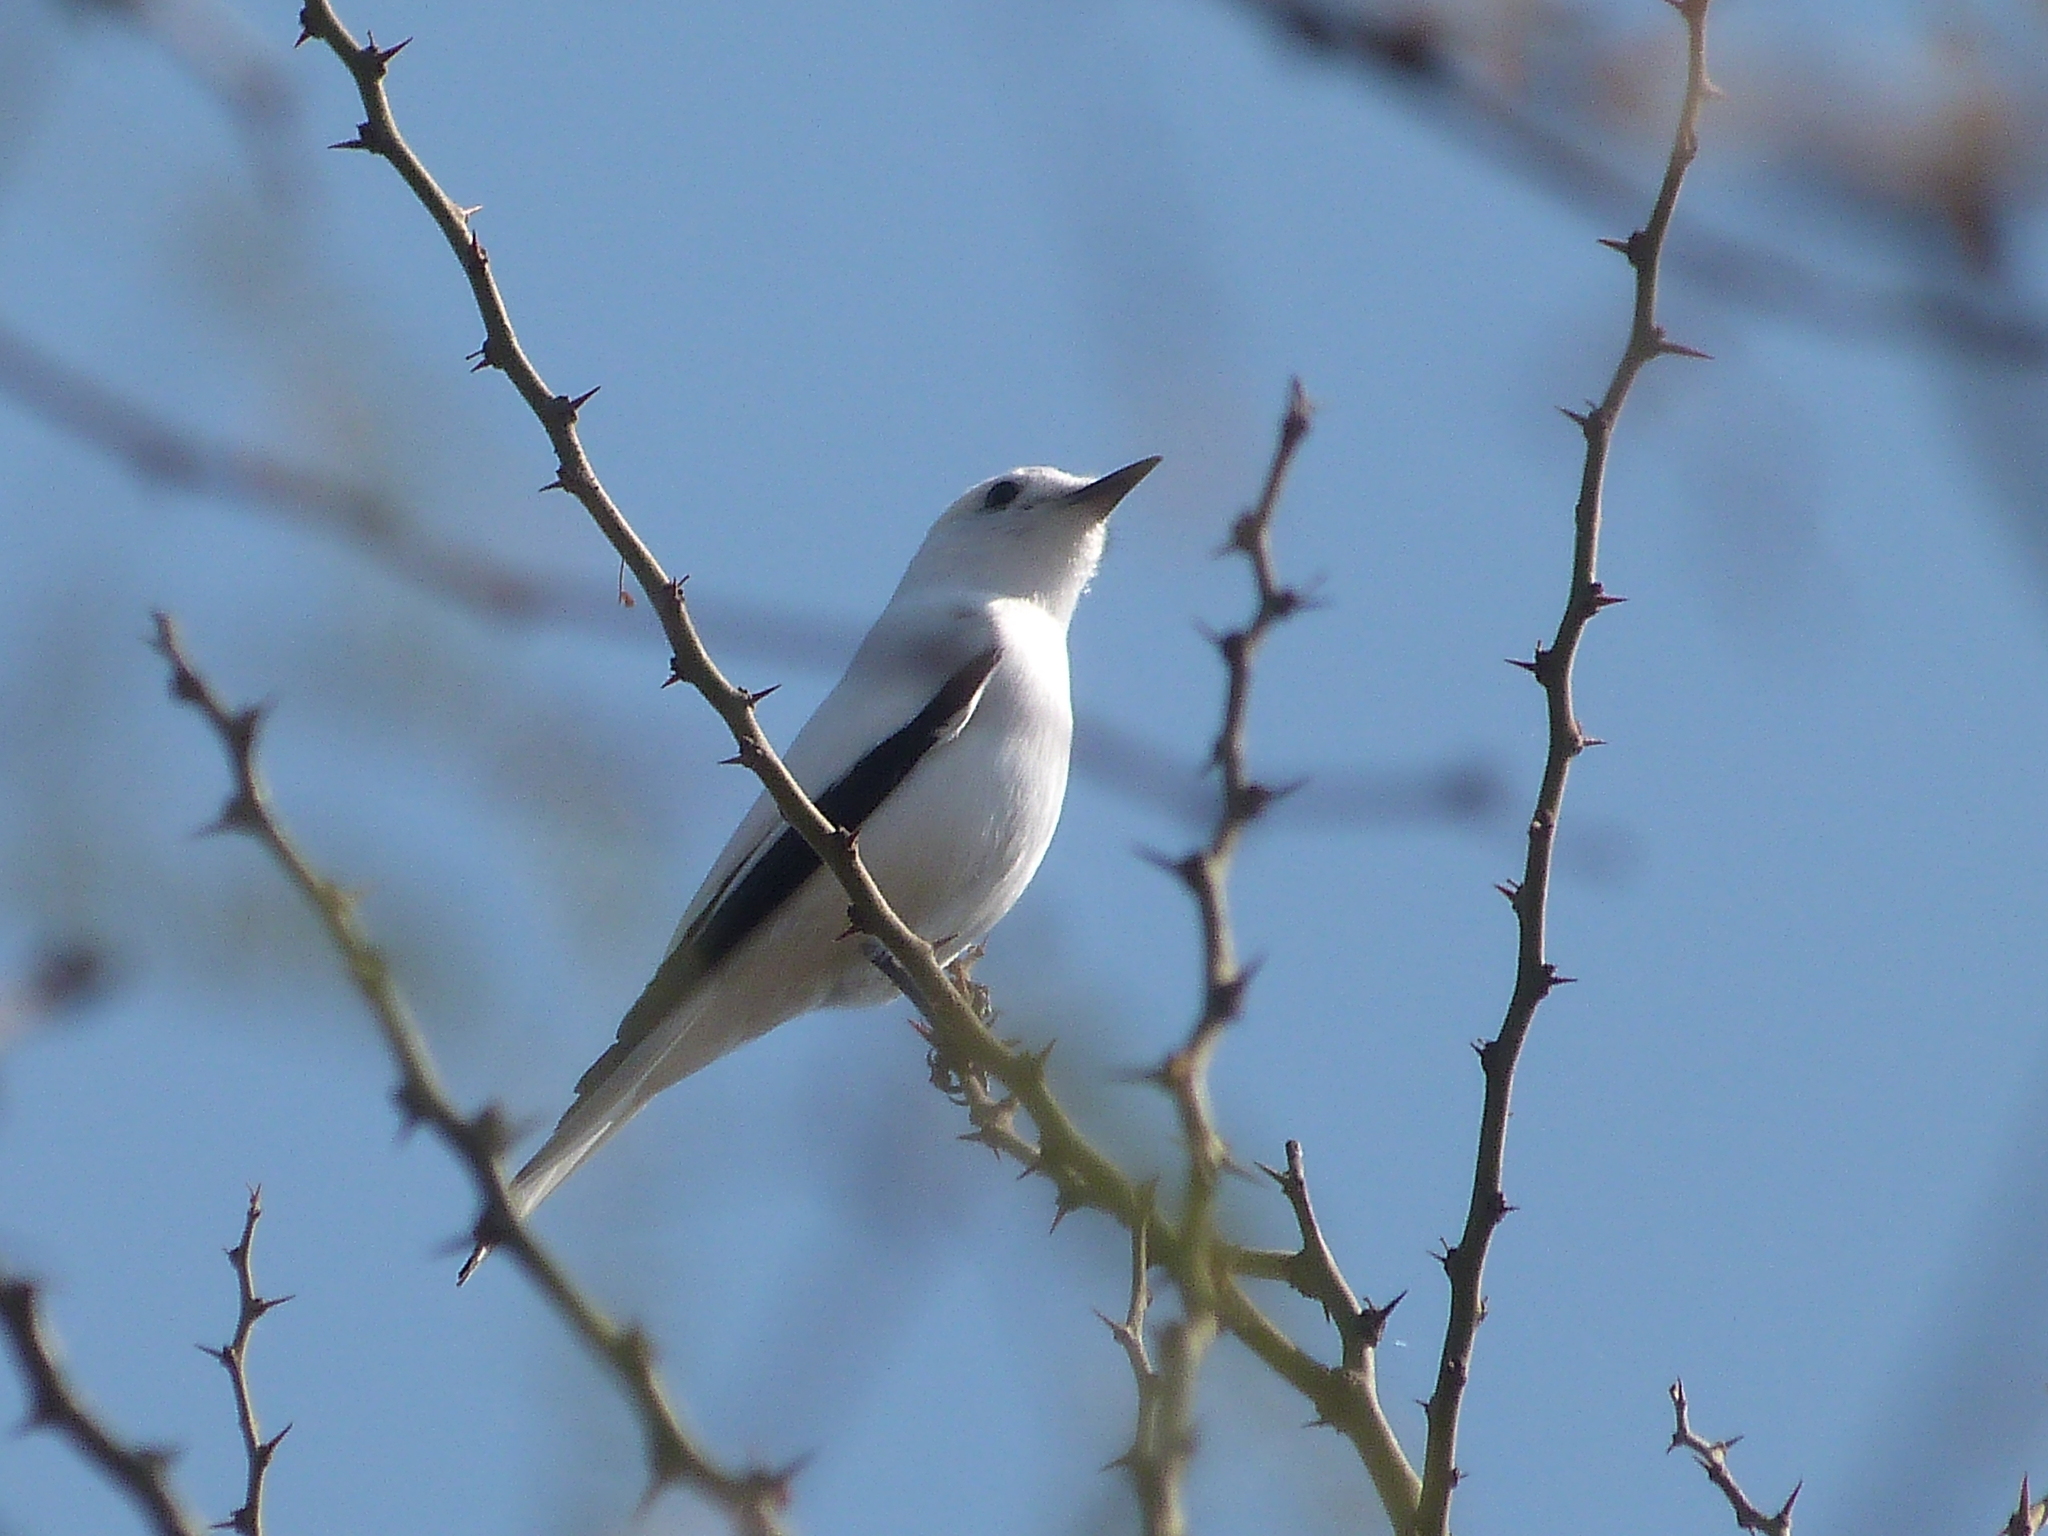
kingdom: Animalia
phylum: Chordata
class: Aves
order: Passeriformes
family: Tyrannidae
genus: Xolmis
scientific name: Xolmis irupero
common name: White monjita
